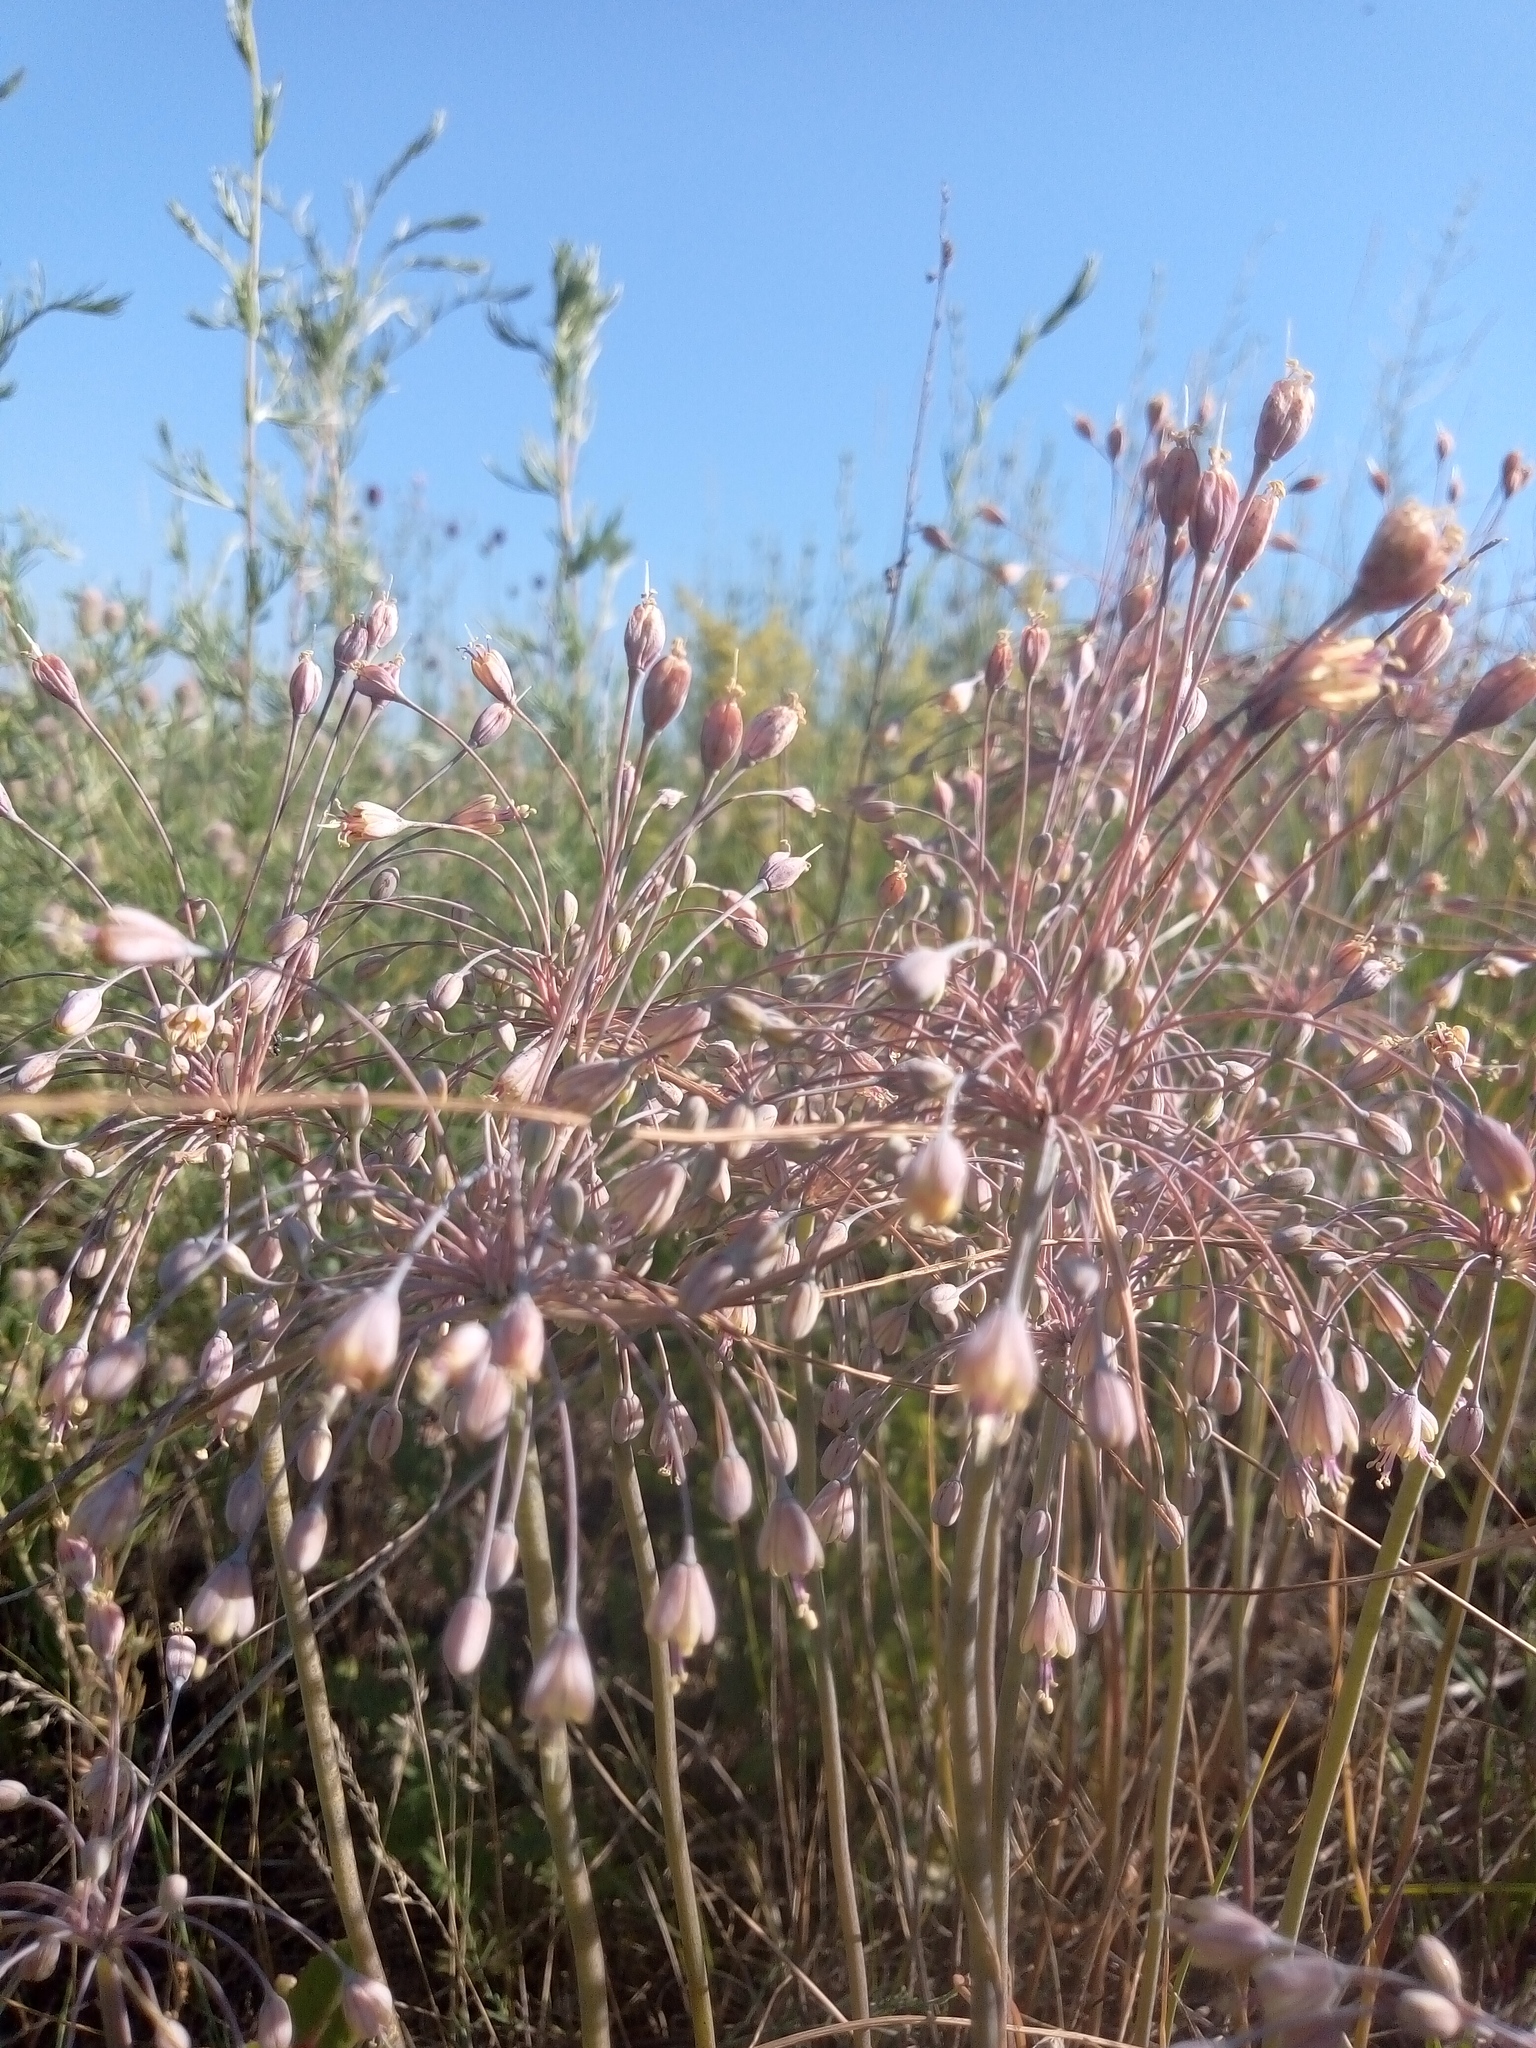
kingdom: Plantae
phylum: Tracheophyta
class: Liliopsida
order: Asparagales
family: Amaryllidaceae
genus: Allium
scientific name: Allium flavum
